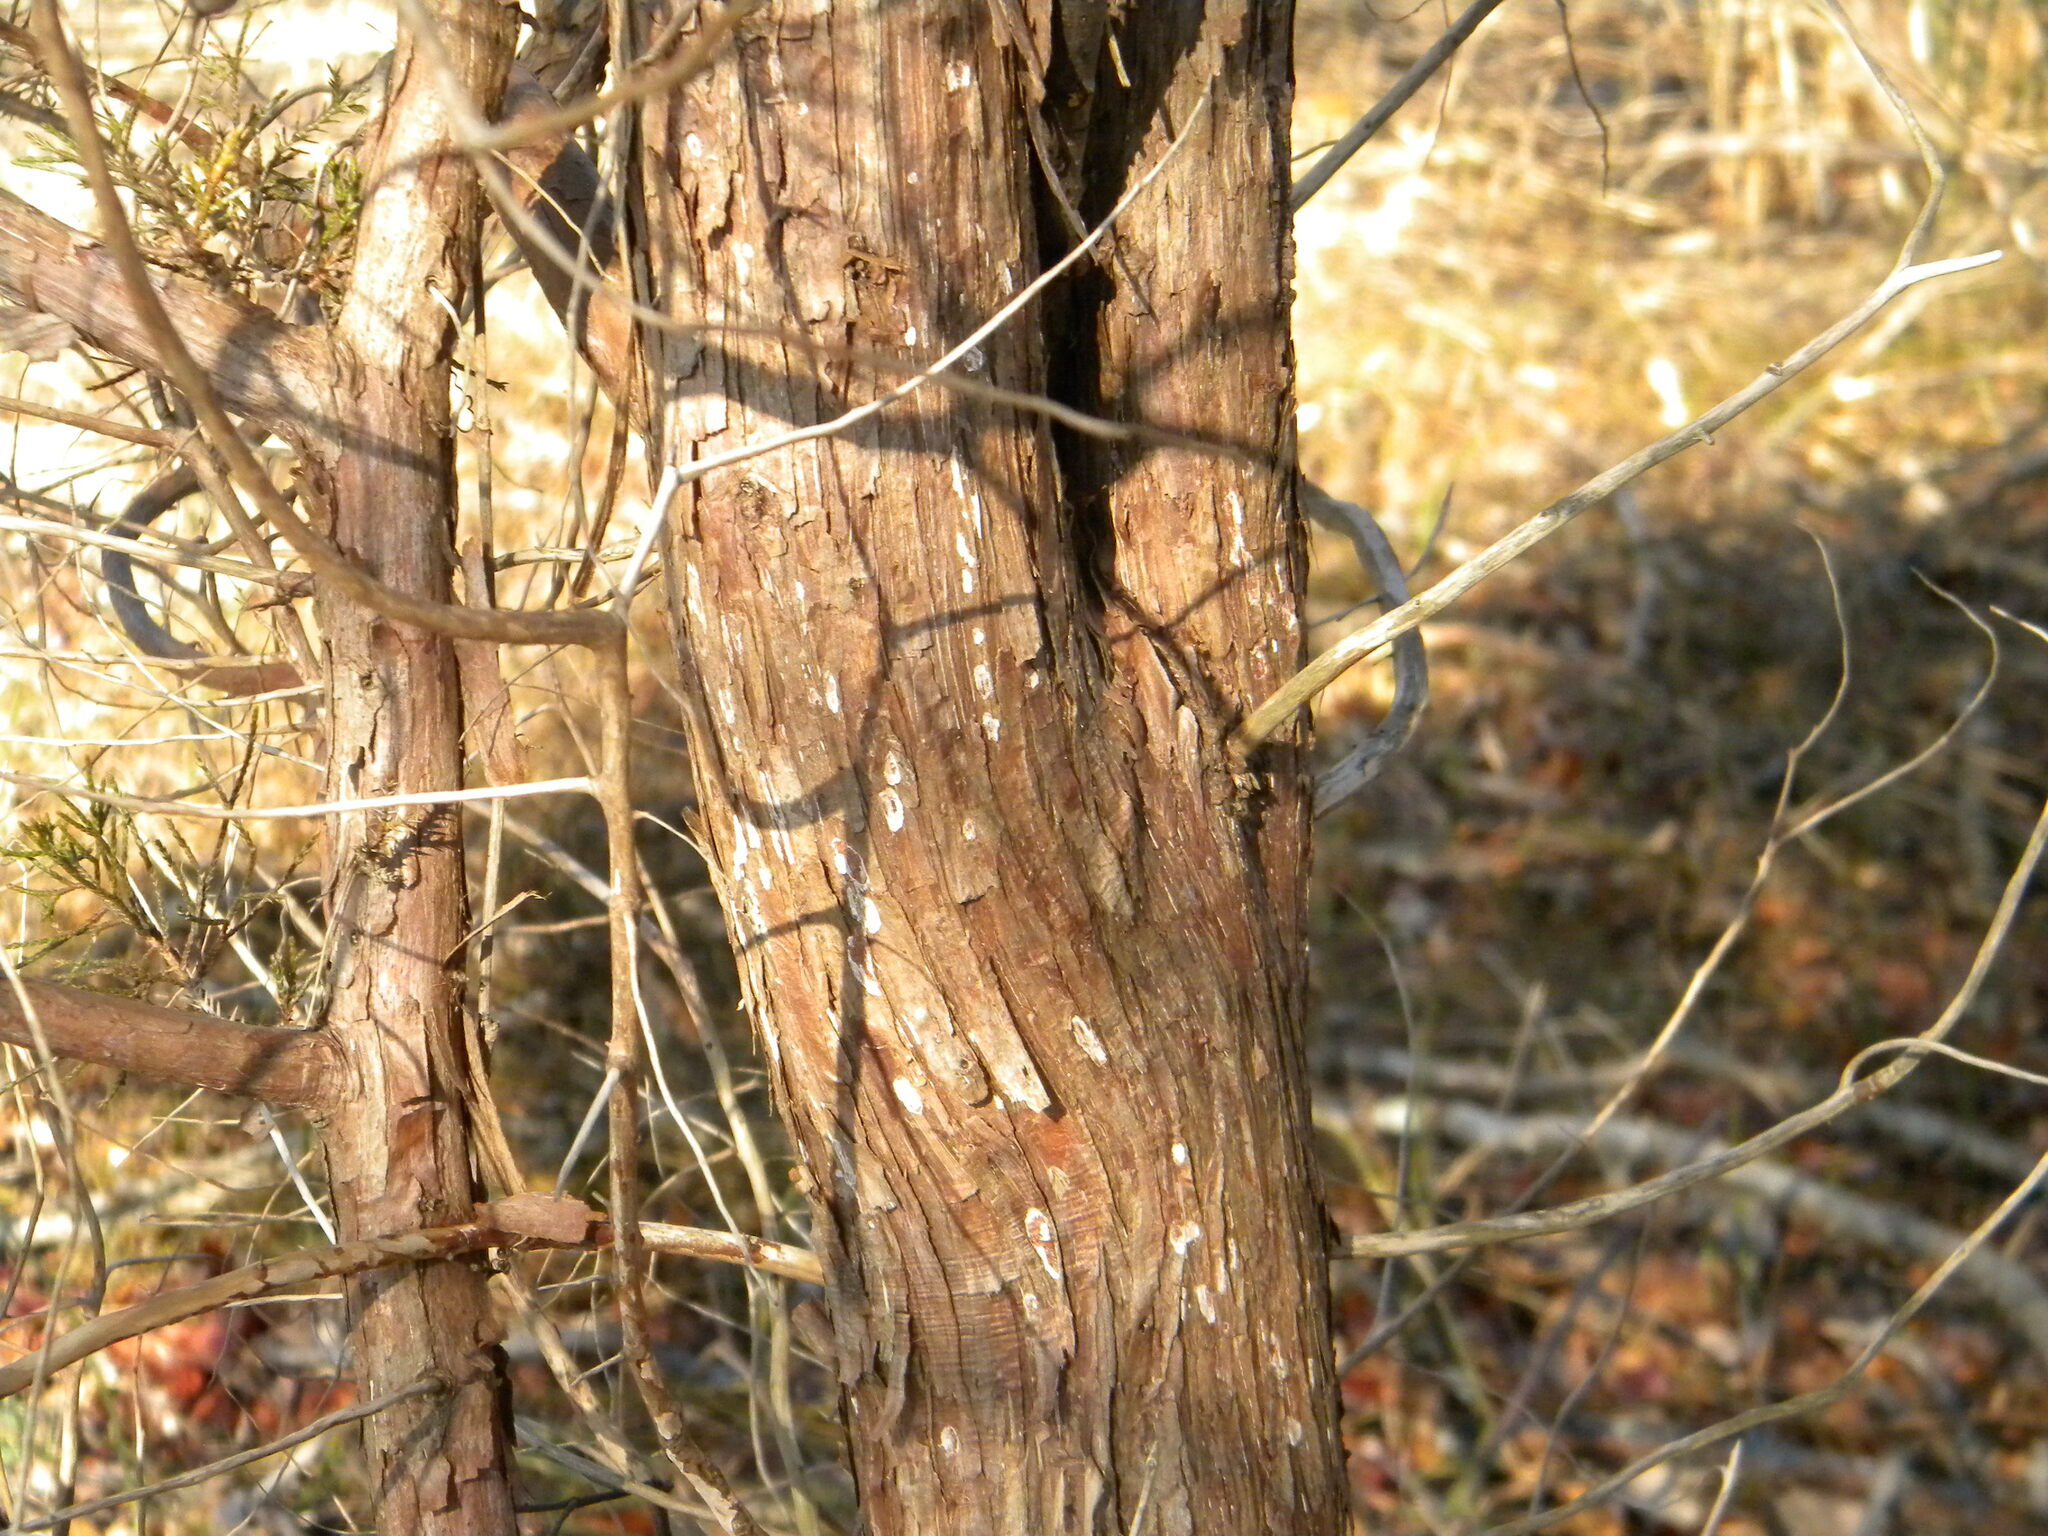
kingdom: Plantae
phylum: Tracheophyta
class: Pinopsida
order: Pinales
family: Cupressaceae
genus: Juniperus
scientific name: Juniperus virginiana
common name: Red juniper
